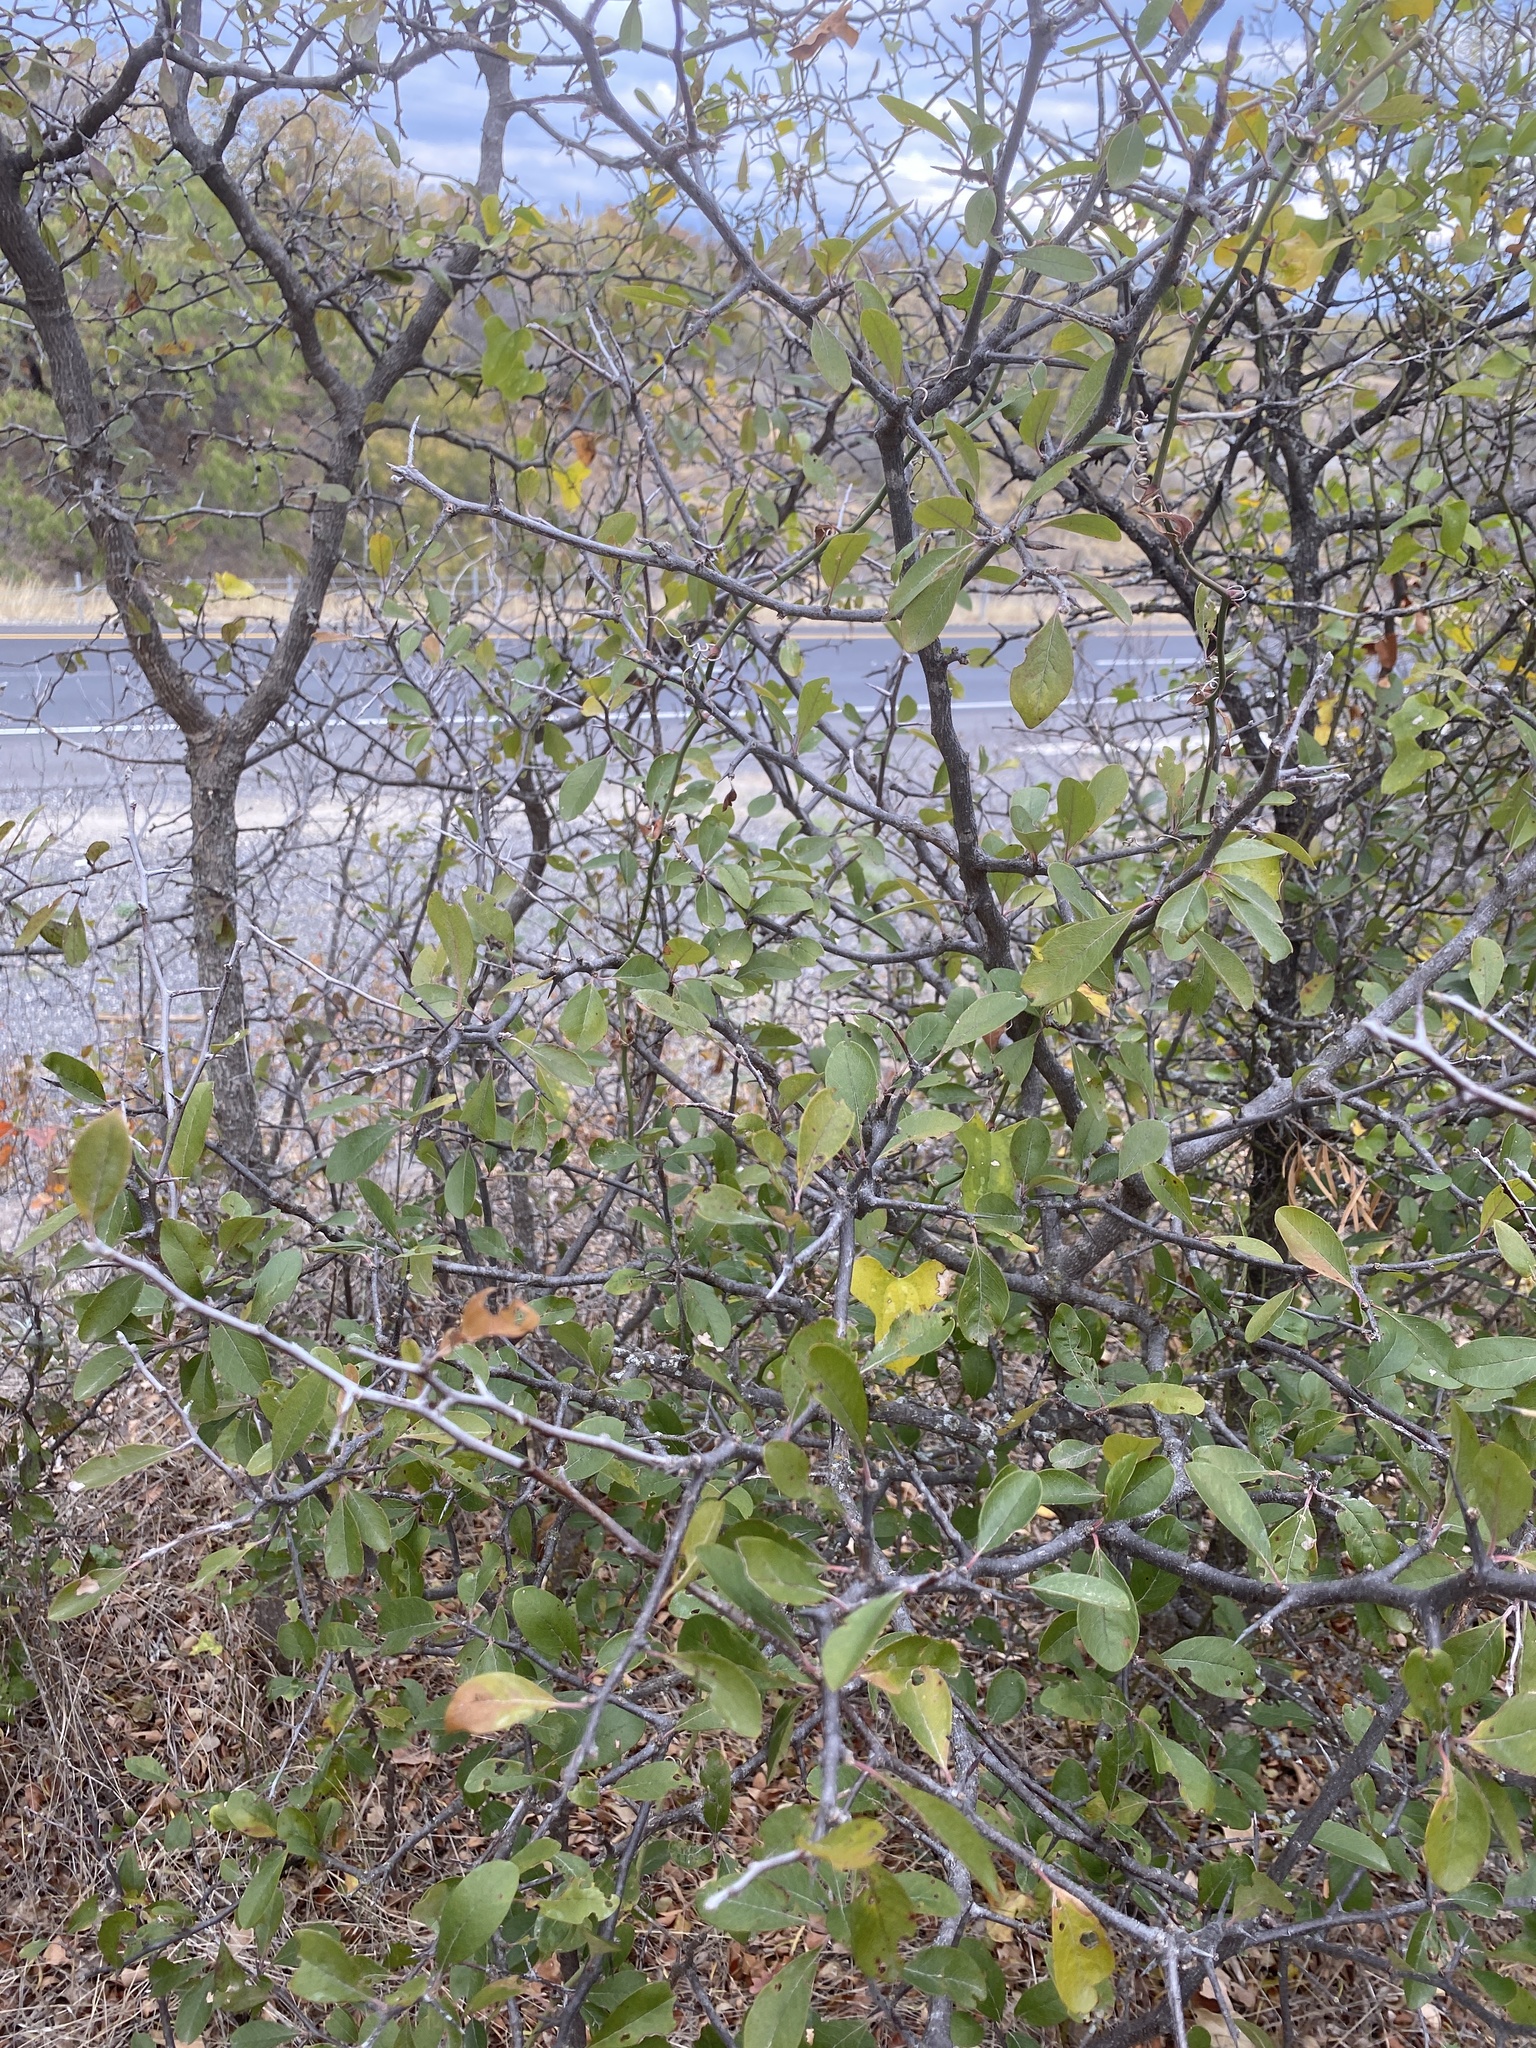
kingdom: Plantae
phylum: Tracheophyta
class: Magnoliopsida
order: Ericales
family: Sapotaceae
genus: Sideroxylon
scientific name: Sideroxylon lanuginosum
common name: Chittamwood
